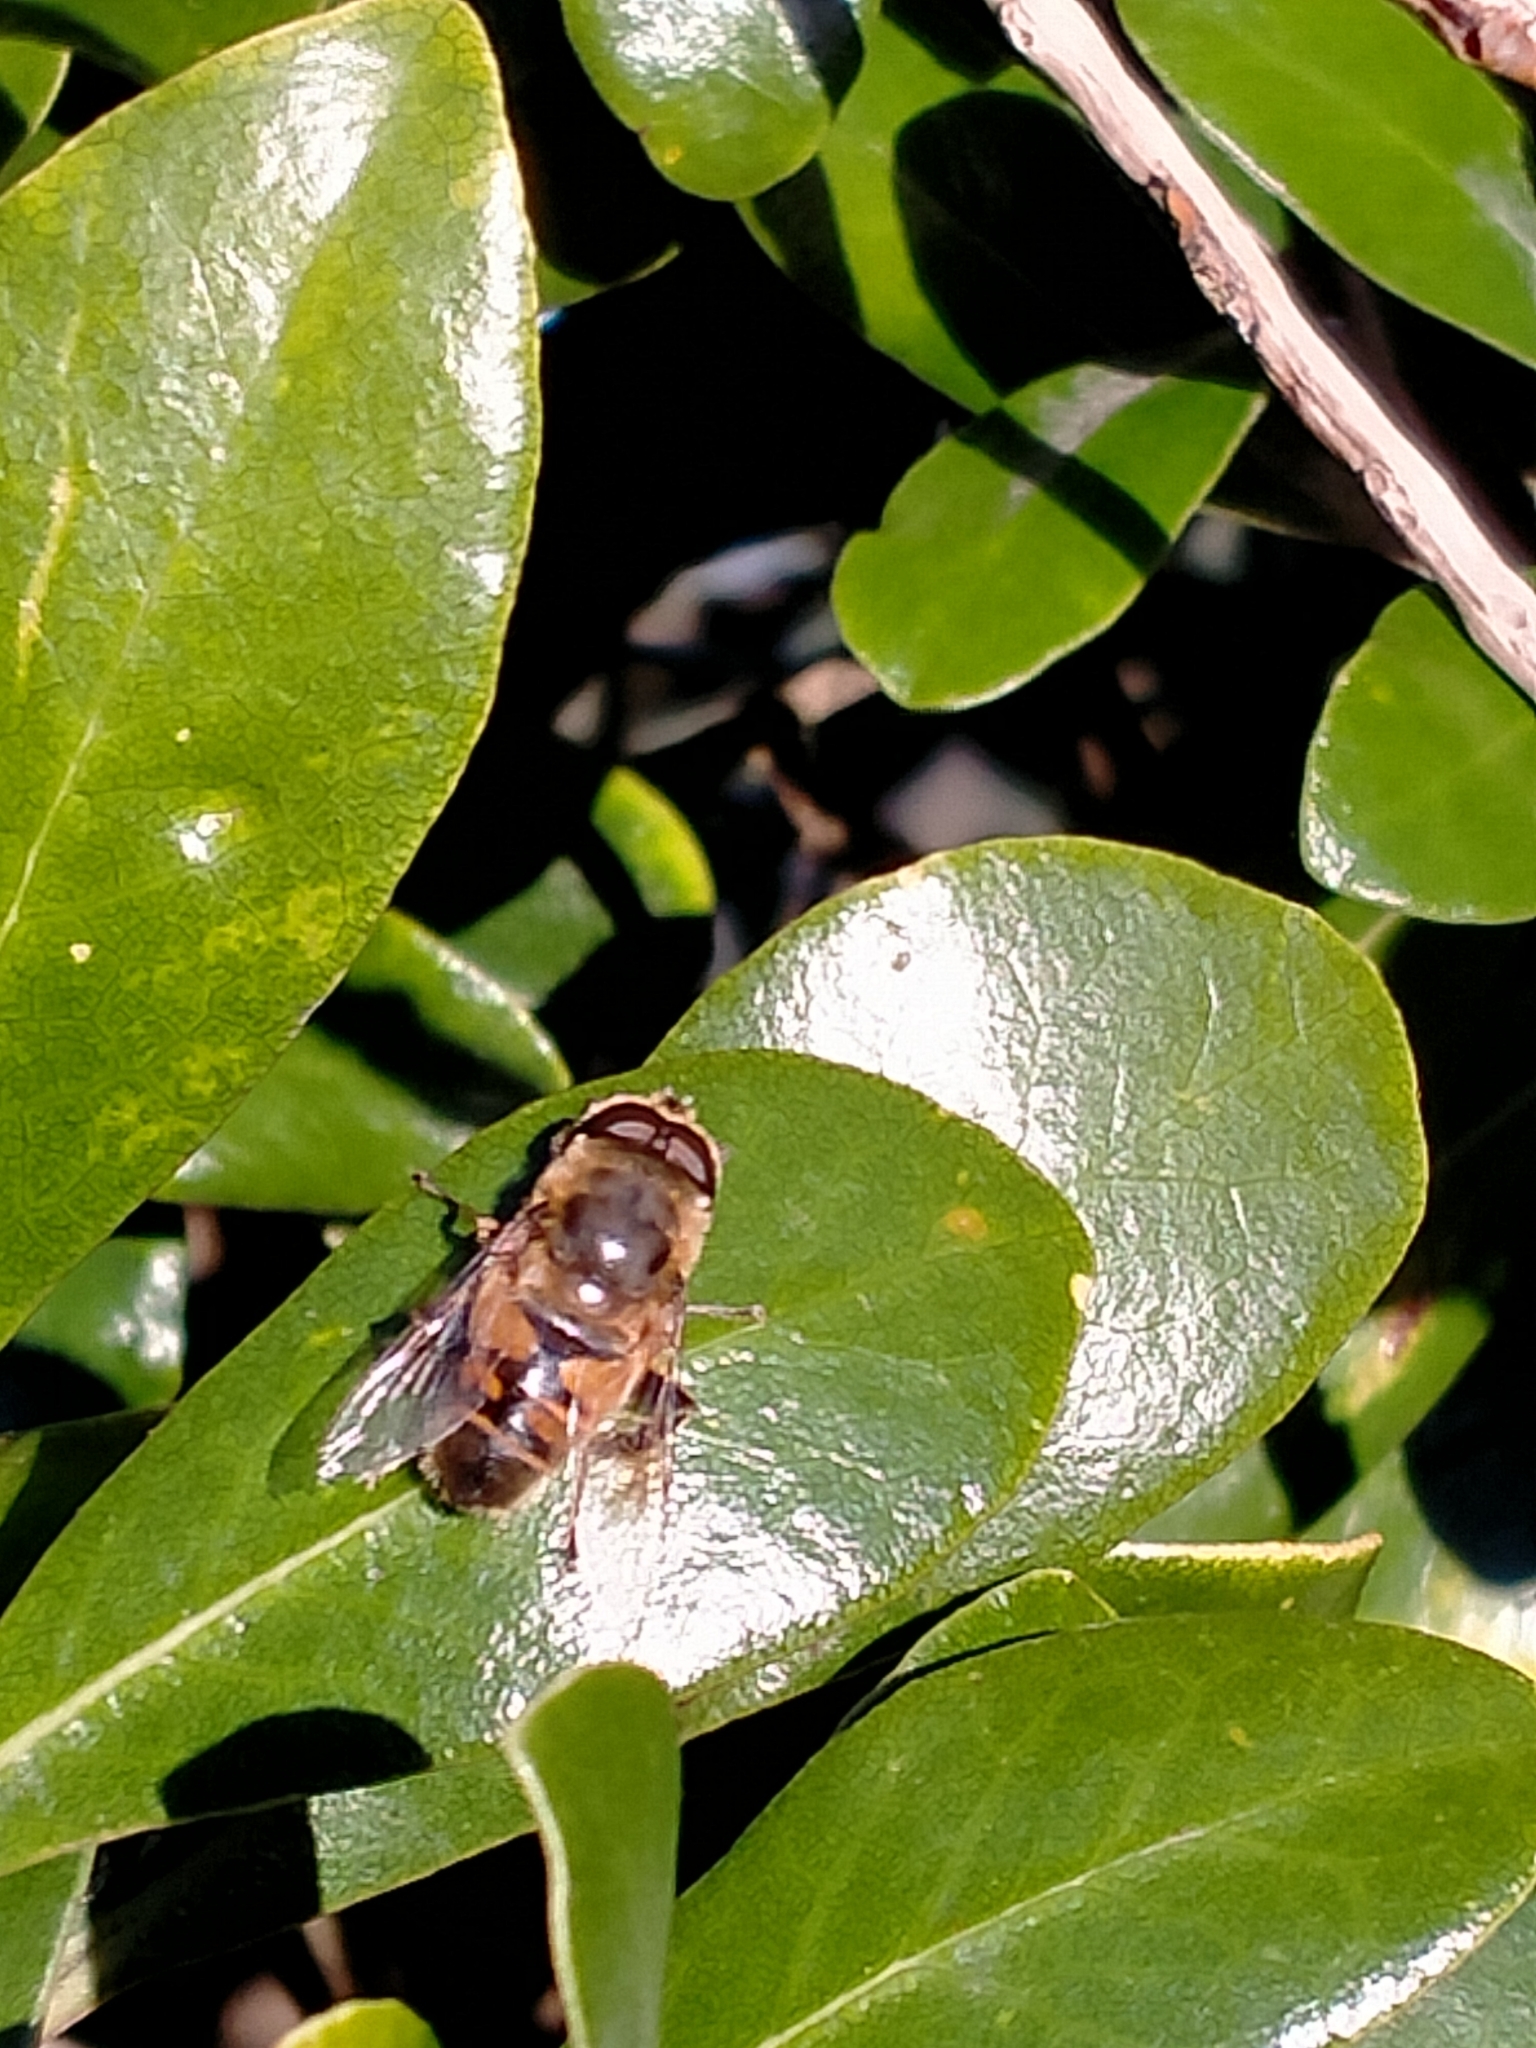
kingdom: Animalia
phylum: Arthropoda
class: Insecta
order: Diptera
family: Syrphidae
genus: Eristalis
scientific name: Eristalis tenax
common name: Drone fly
